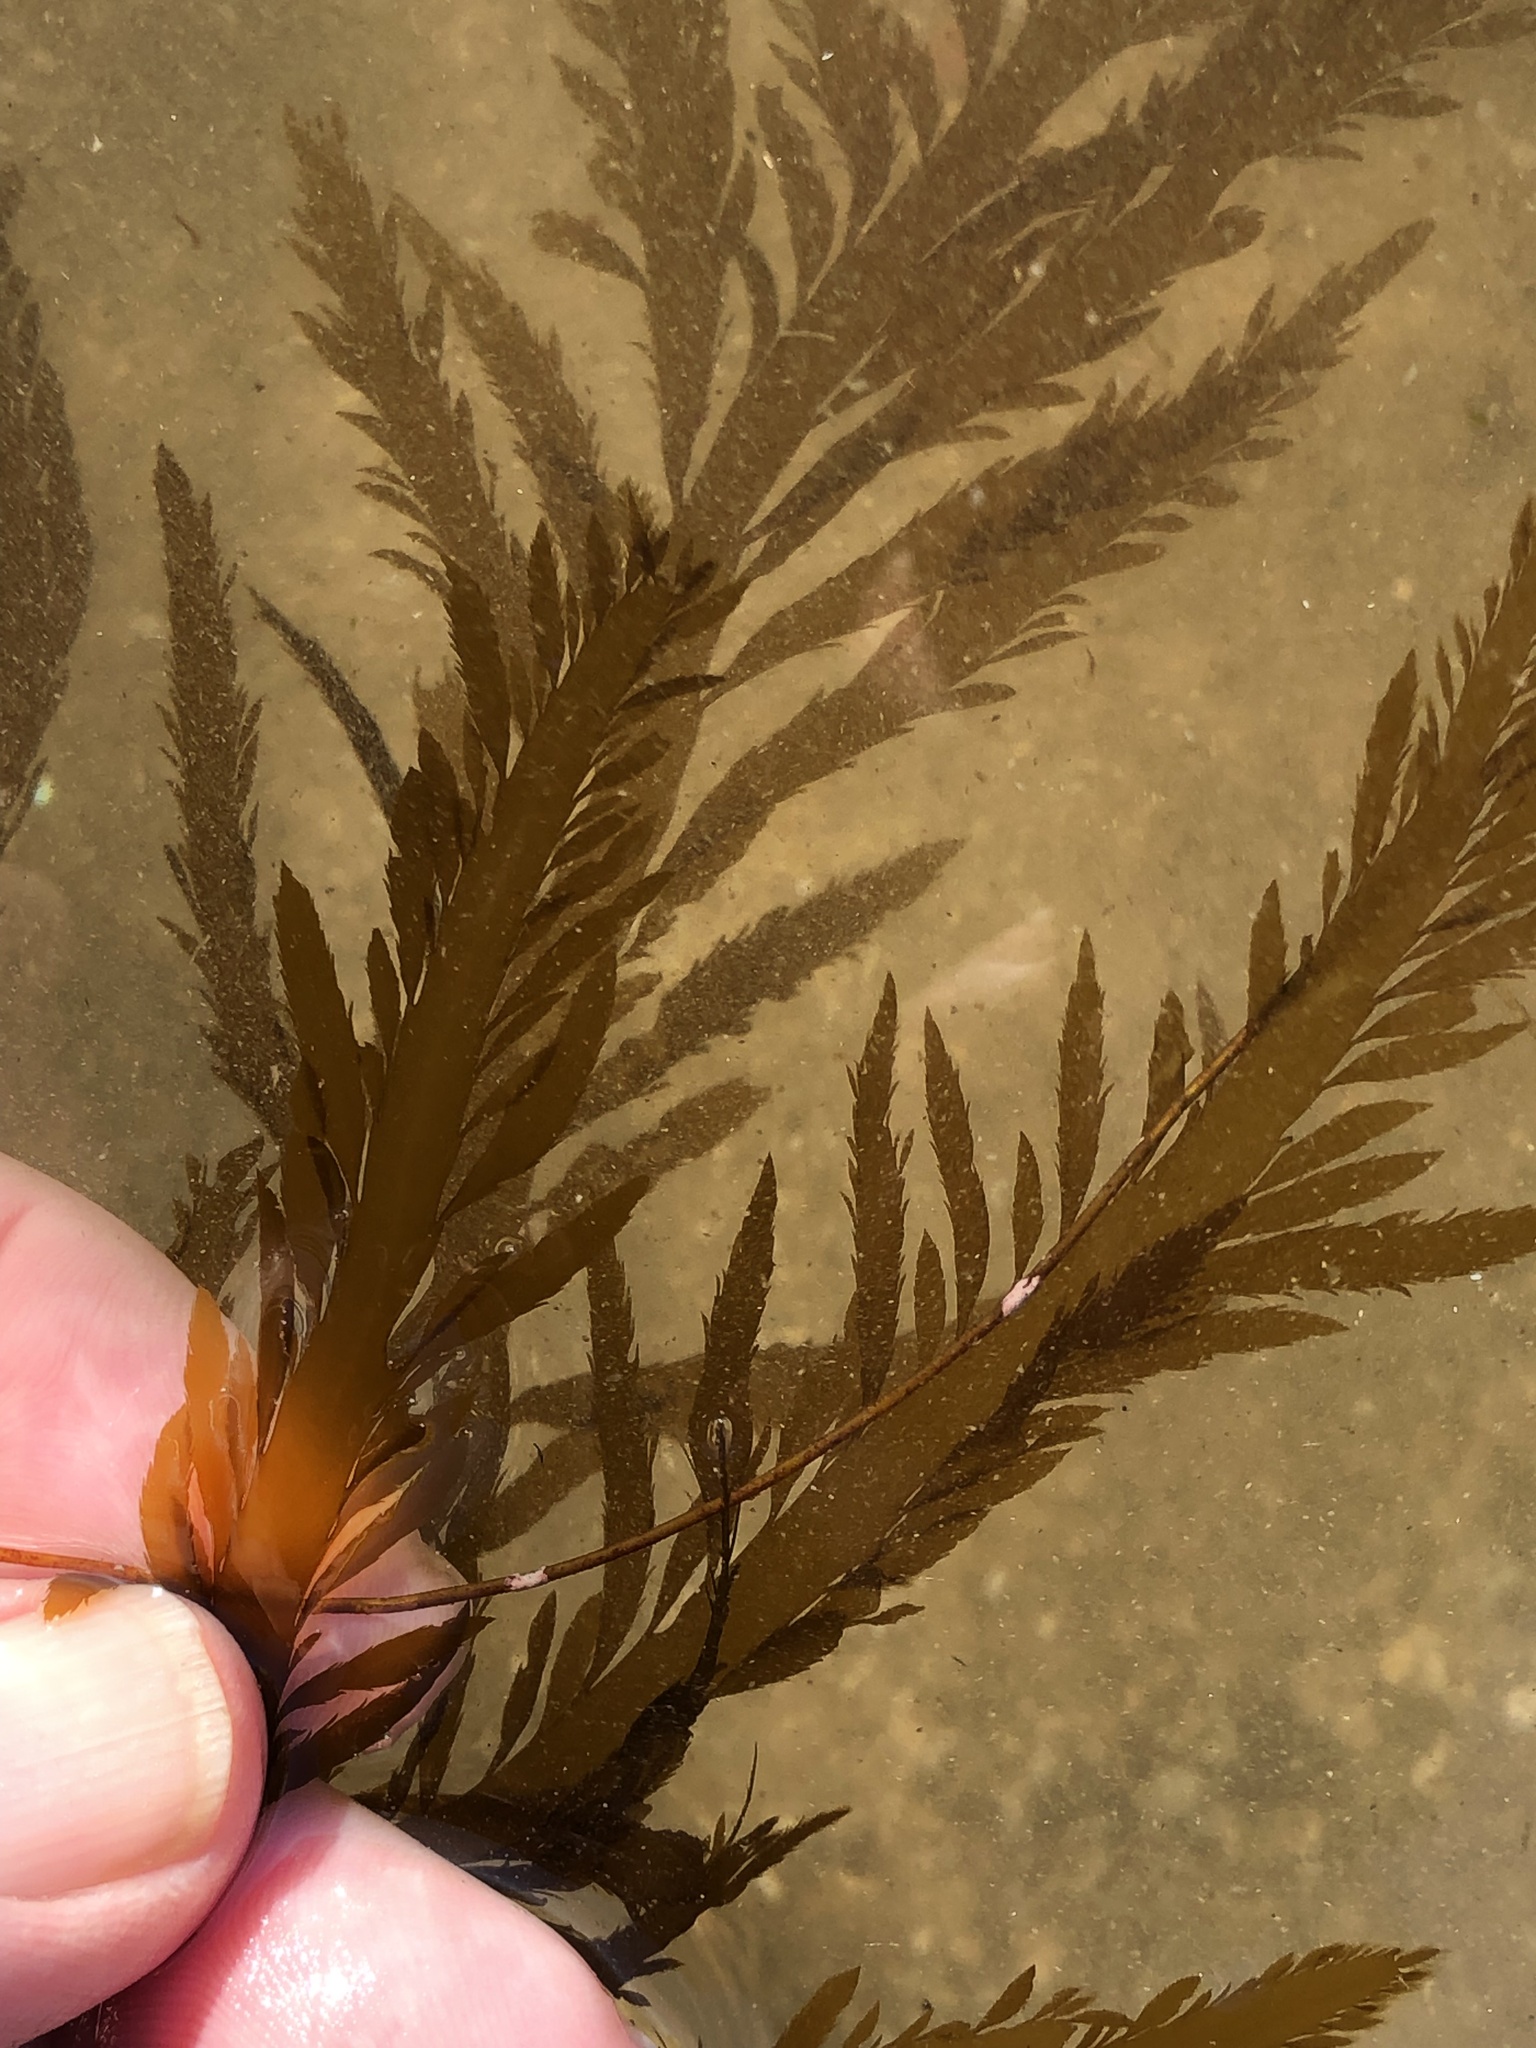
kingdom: Chromista
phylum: Ochrophyta
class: Phaeophyceae
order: Desmarestiales
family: Desmarestiaceae
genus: Desmarestia
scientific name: Desmarestia ligulata
